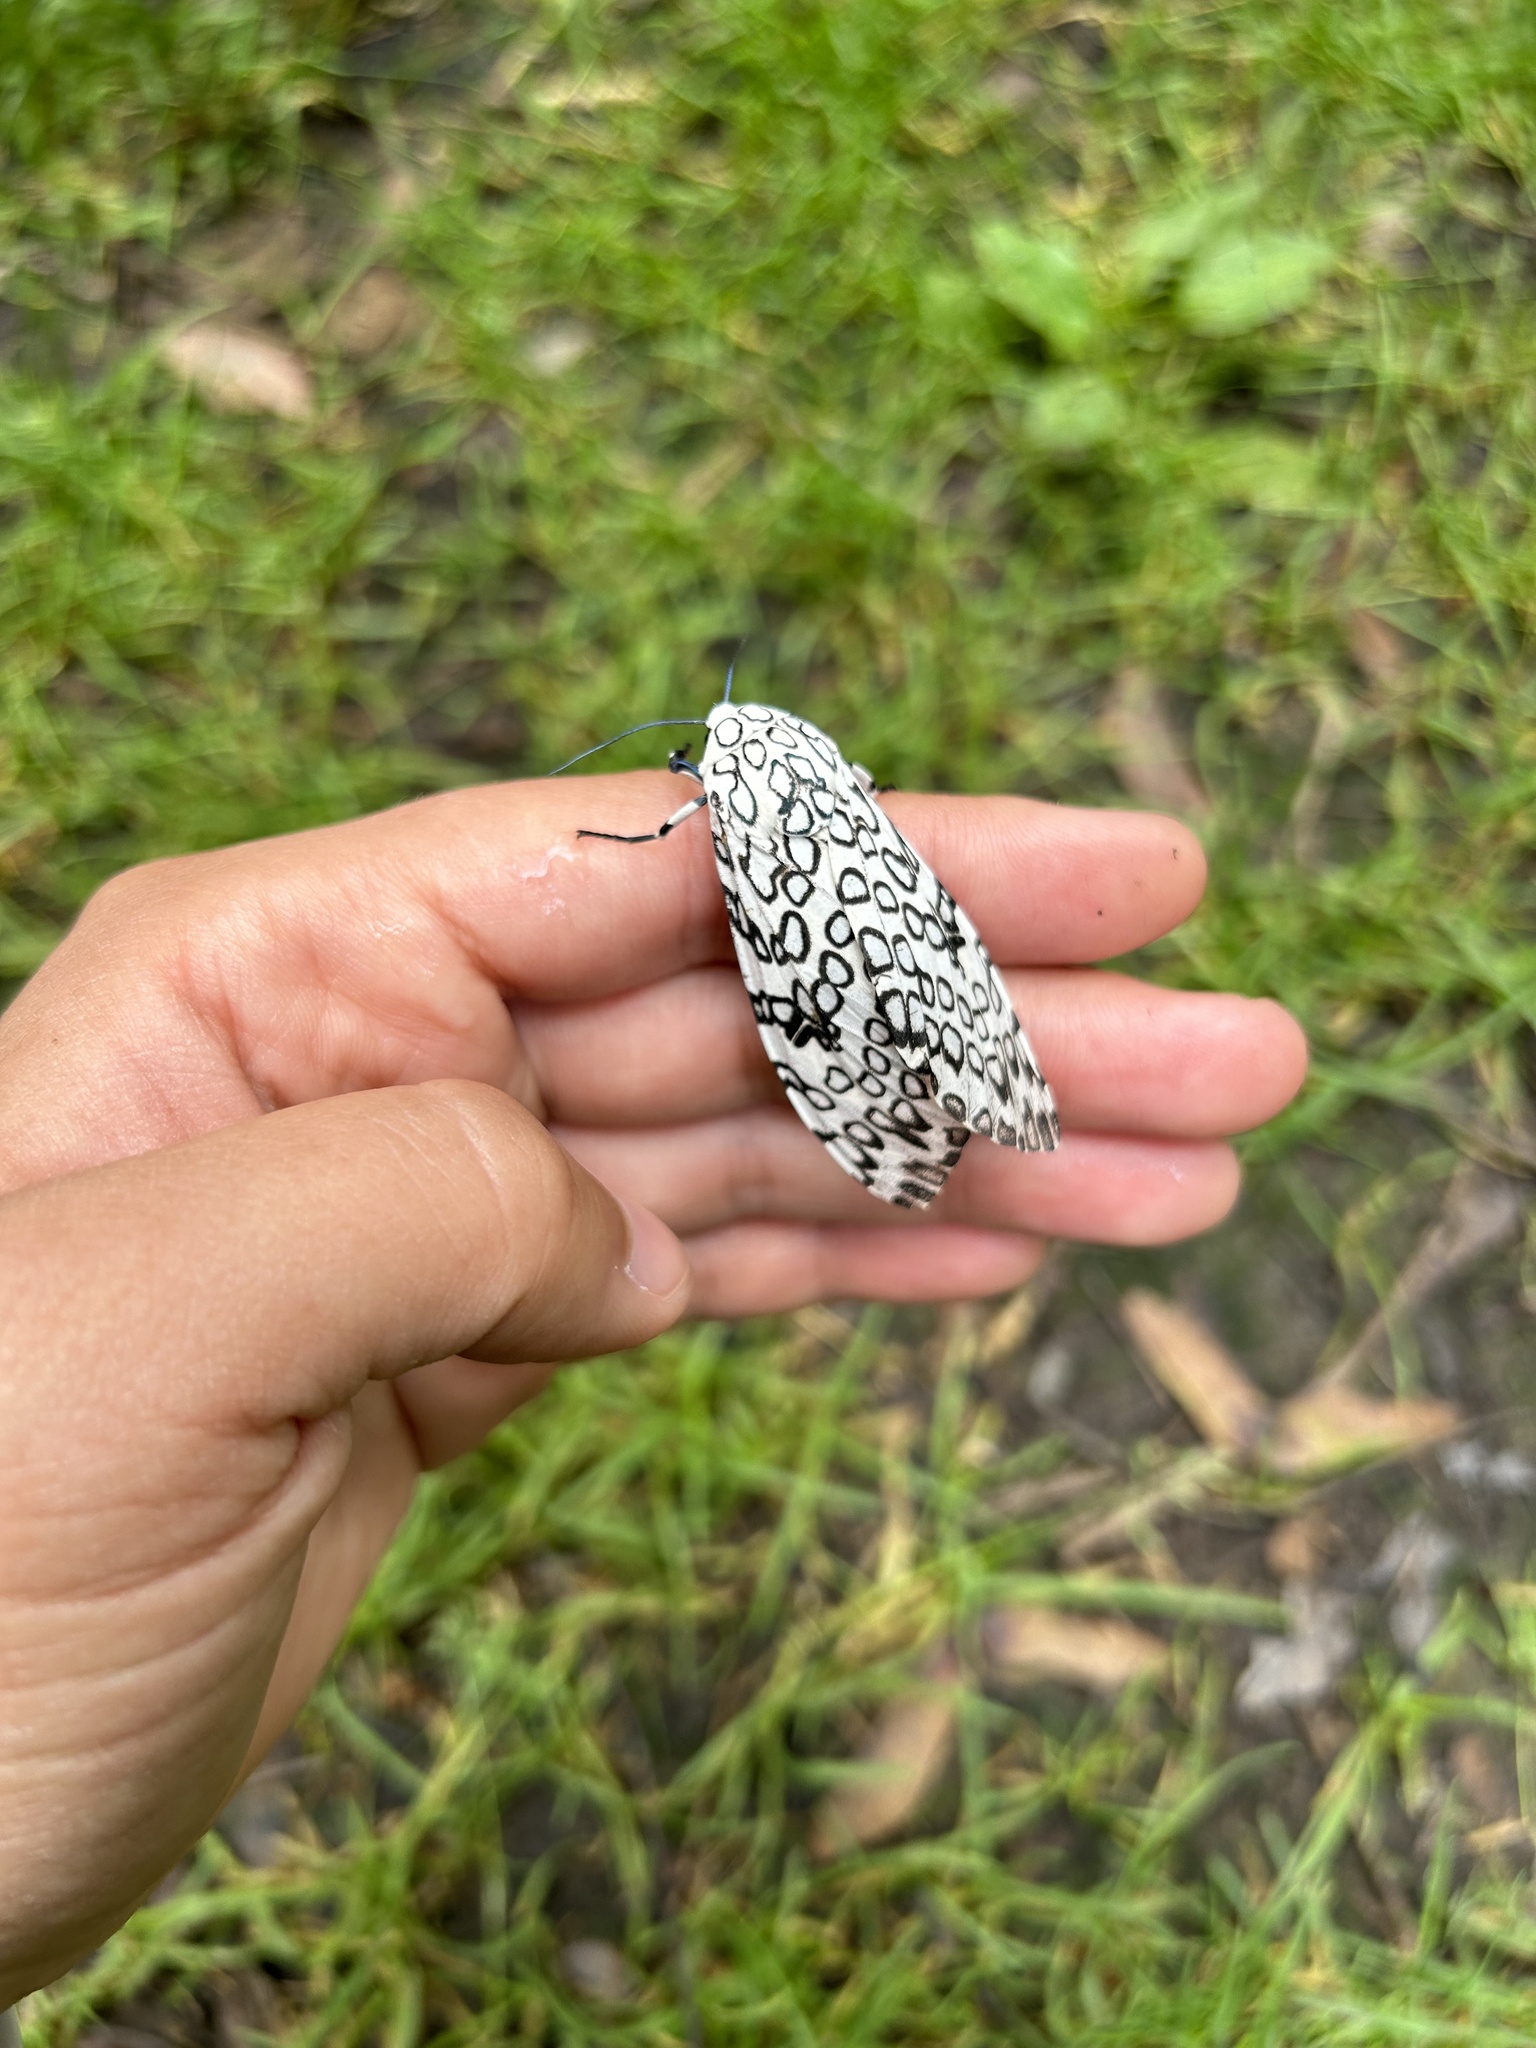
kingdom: Animalia
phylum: Arthropoda
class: Insecta
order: Lepidoptera
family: Erebidae
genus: Hypercompe
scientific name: Hypercompe scribonia
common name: Giant leopard moth
